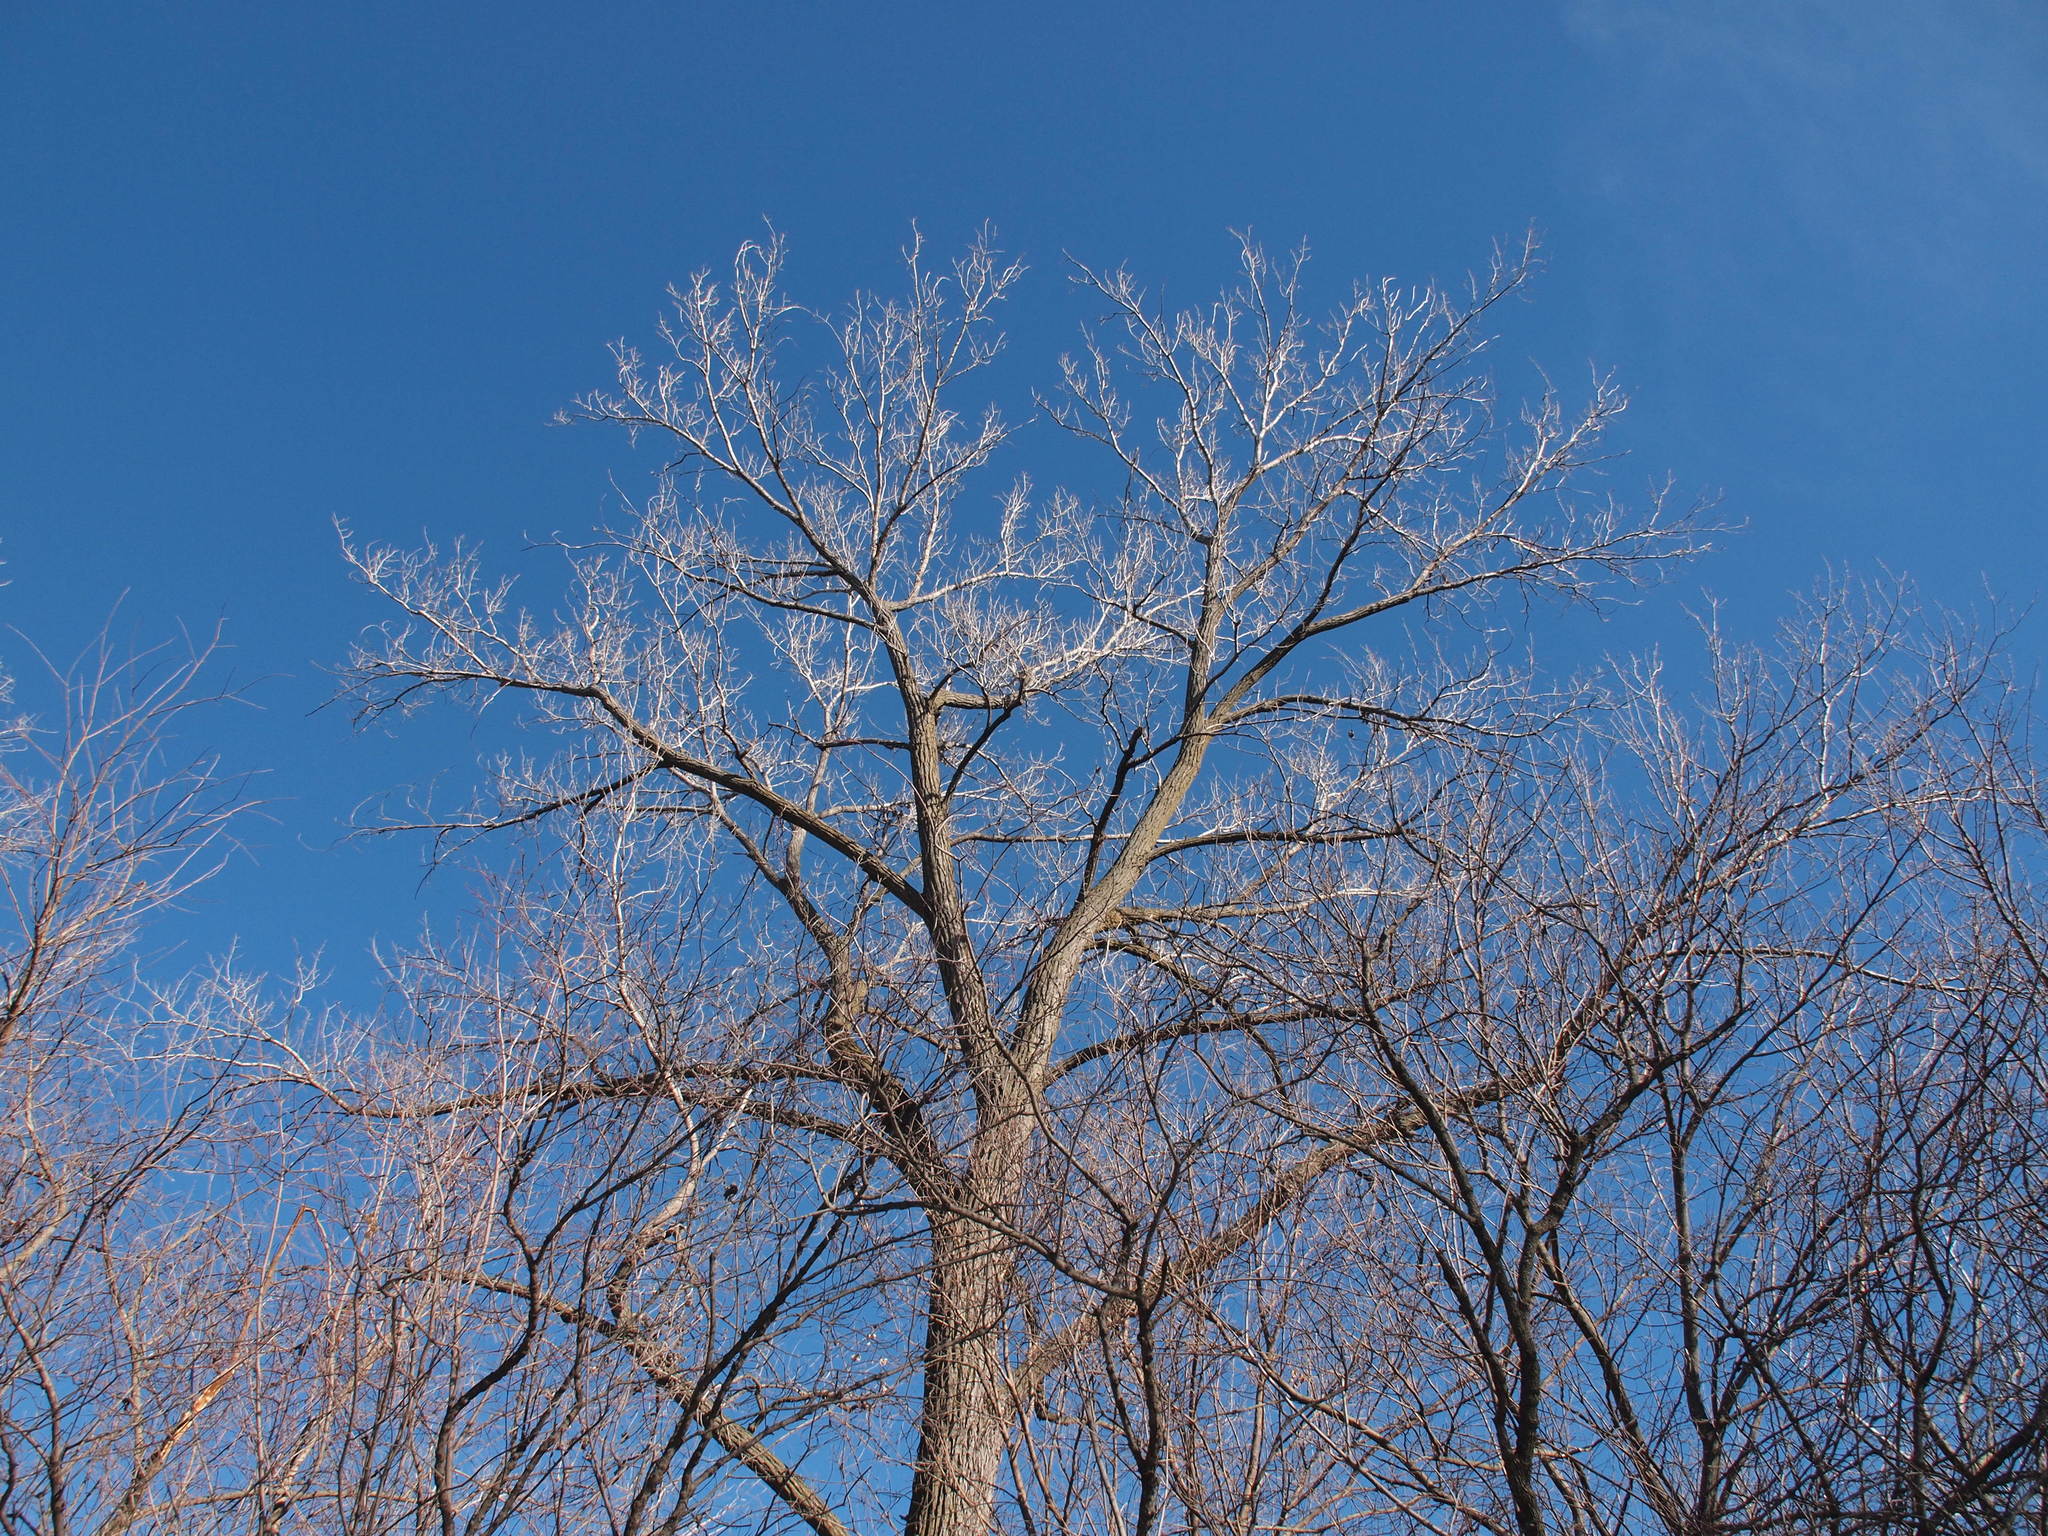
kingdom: Plantae
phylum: Tracheophyta
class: Magnoliopsida
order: Malpighiales
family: Salicaceae
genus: Populus
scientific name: Populus deltoides
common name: Eastern cottonwood
